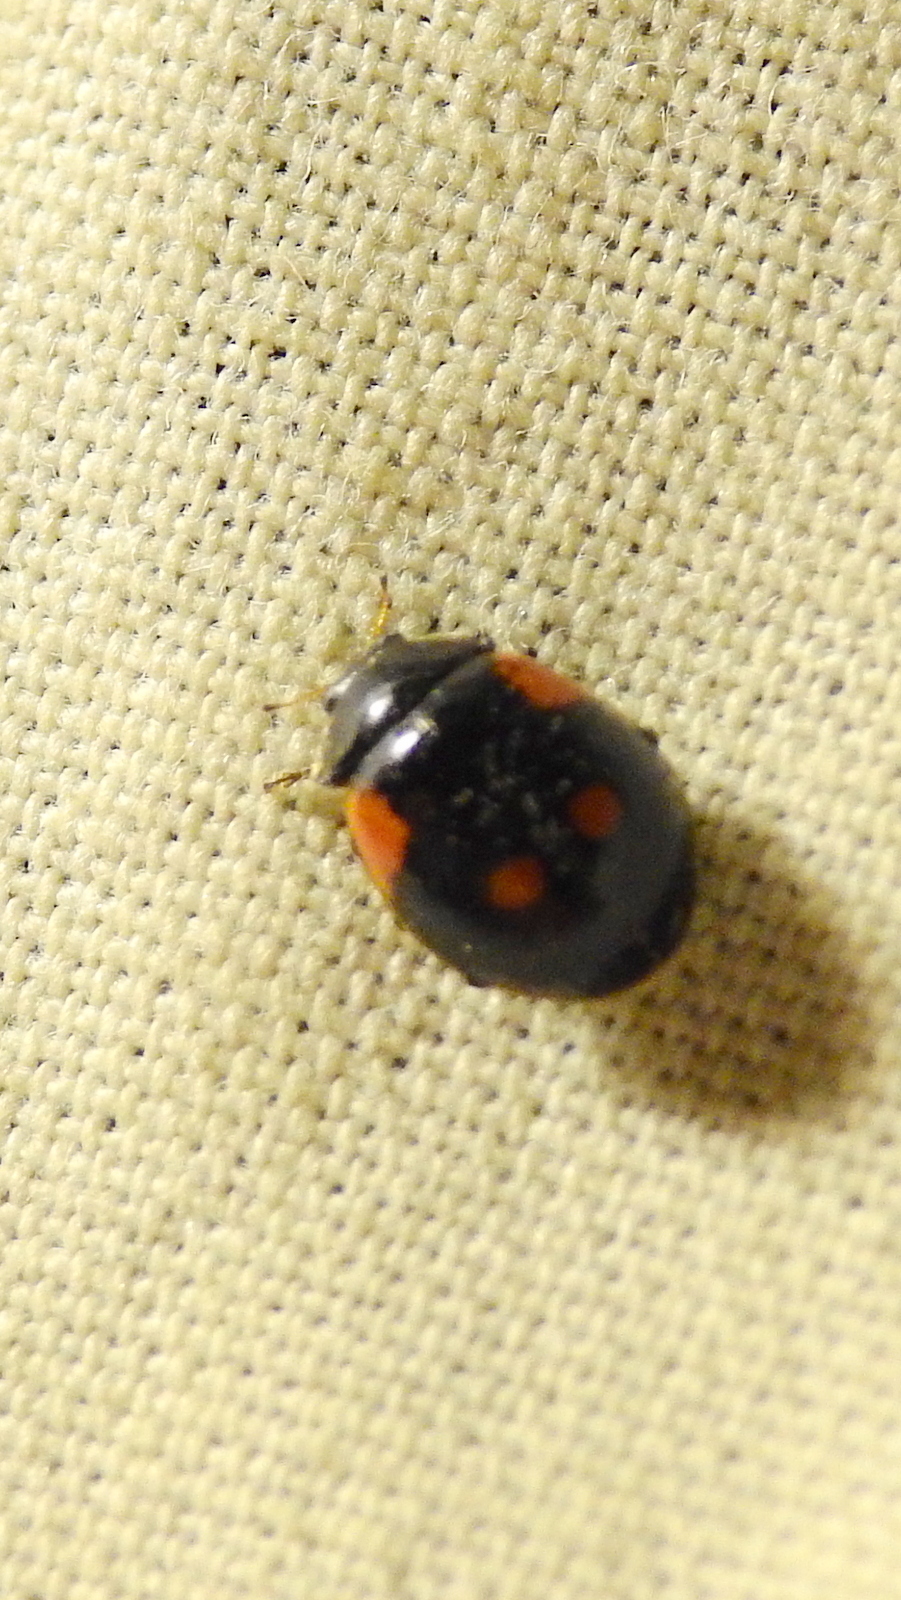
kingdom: Animalia
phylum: Arthropoda
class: Insecta
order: Coleoptera
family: Coccinellidae
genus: Adalia
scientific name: Adalia bipunctata
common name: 2-spot ladybird
